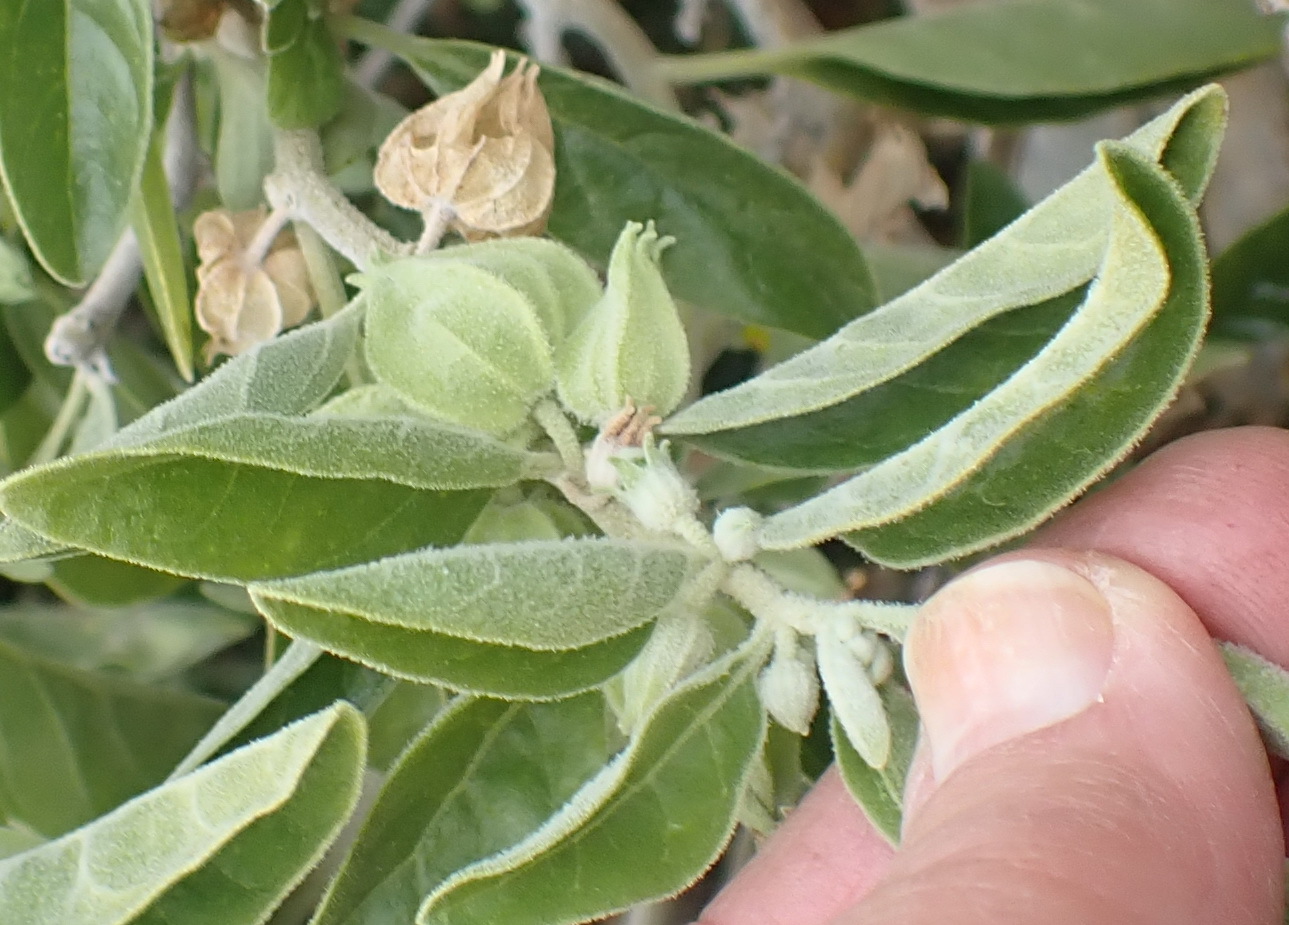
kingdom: Plantae
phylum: Tracheophyta
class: Magnoliopsida
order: Solanales
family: Solanaceae
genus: Withania
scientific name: Withania somnifera
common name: Winter-cherry
